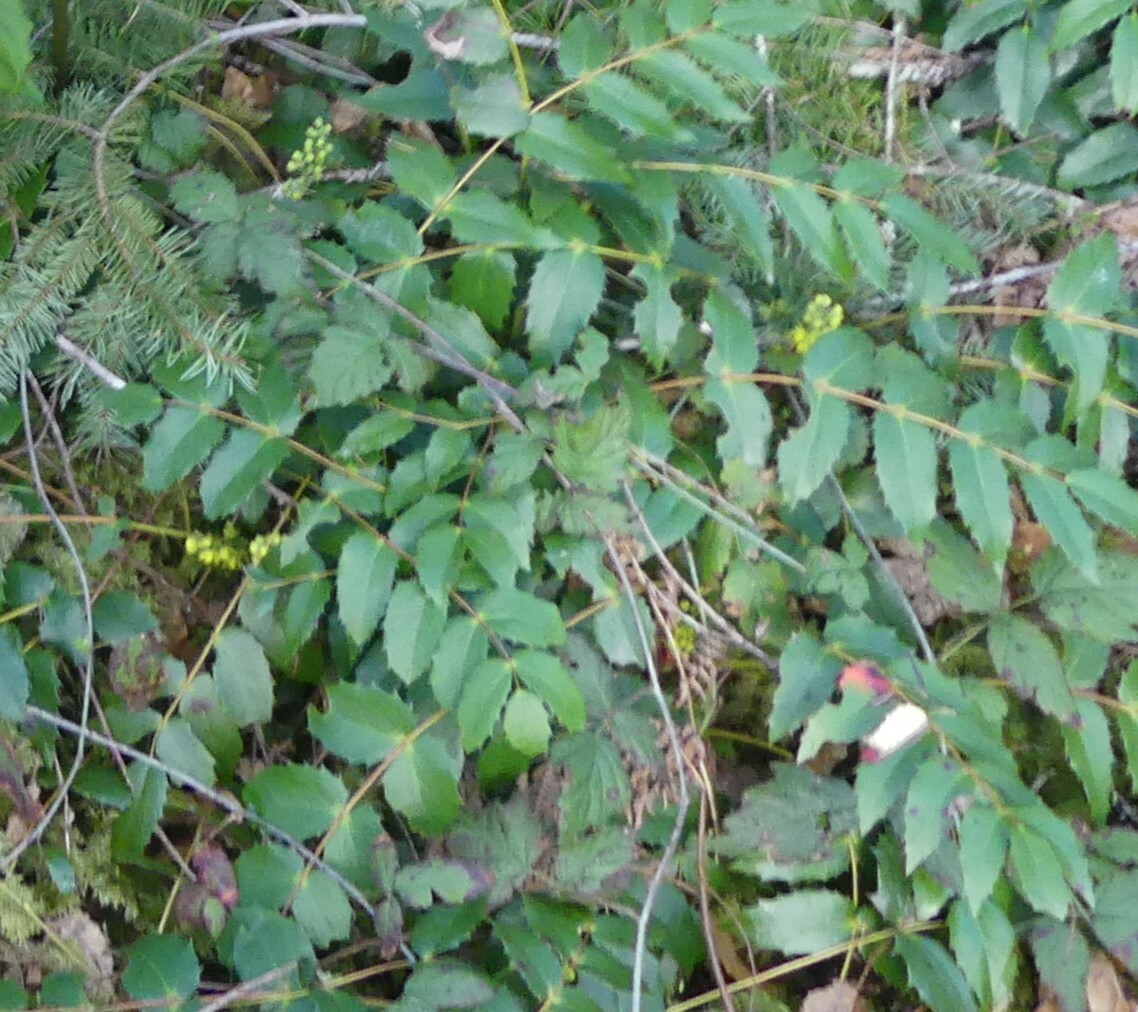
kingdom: Plantae
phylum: Tracheophyta
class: Magnoliopsida
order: Ranunculales
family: Berberidaceae
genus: Mahonia
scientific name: Mahonia nervosa
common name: Cascade oregon-grape
